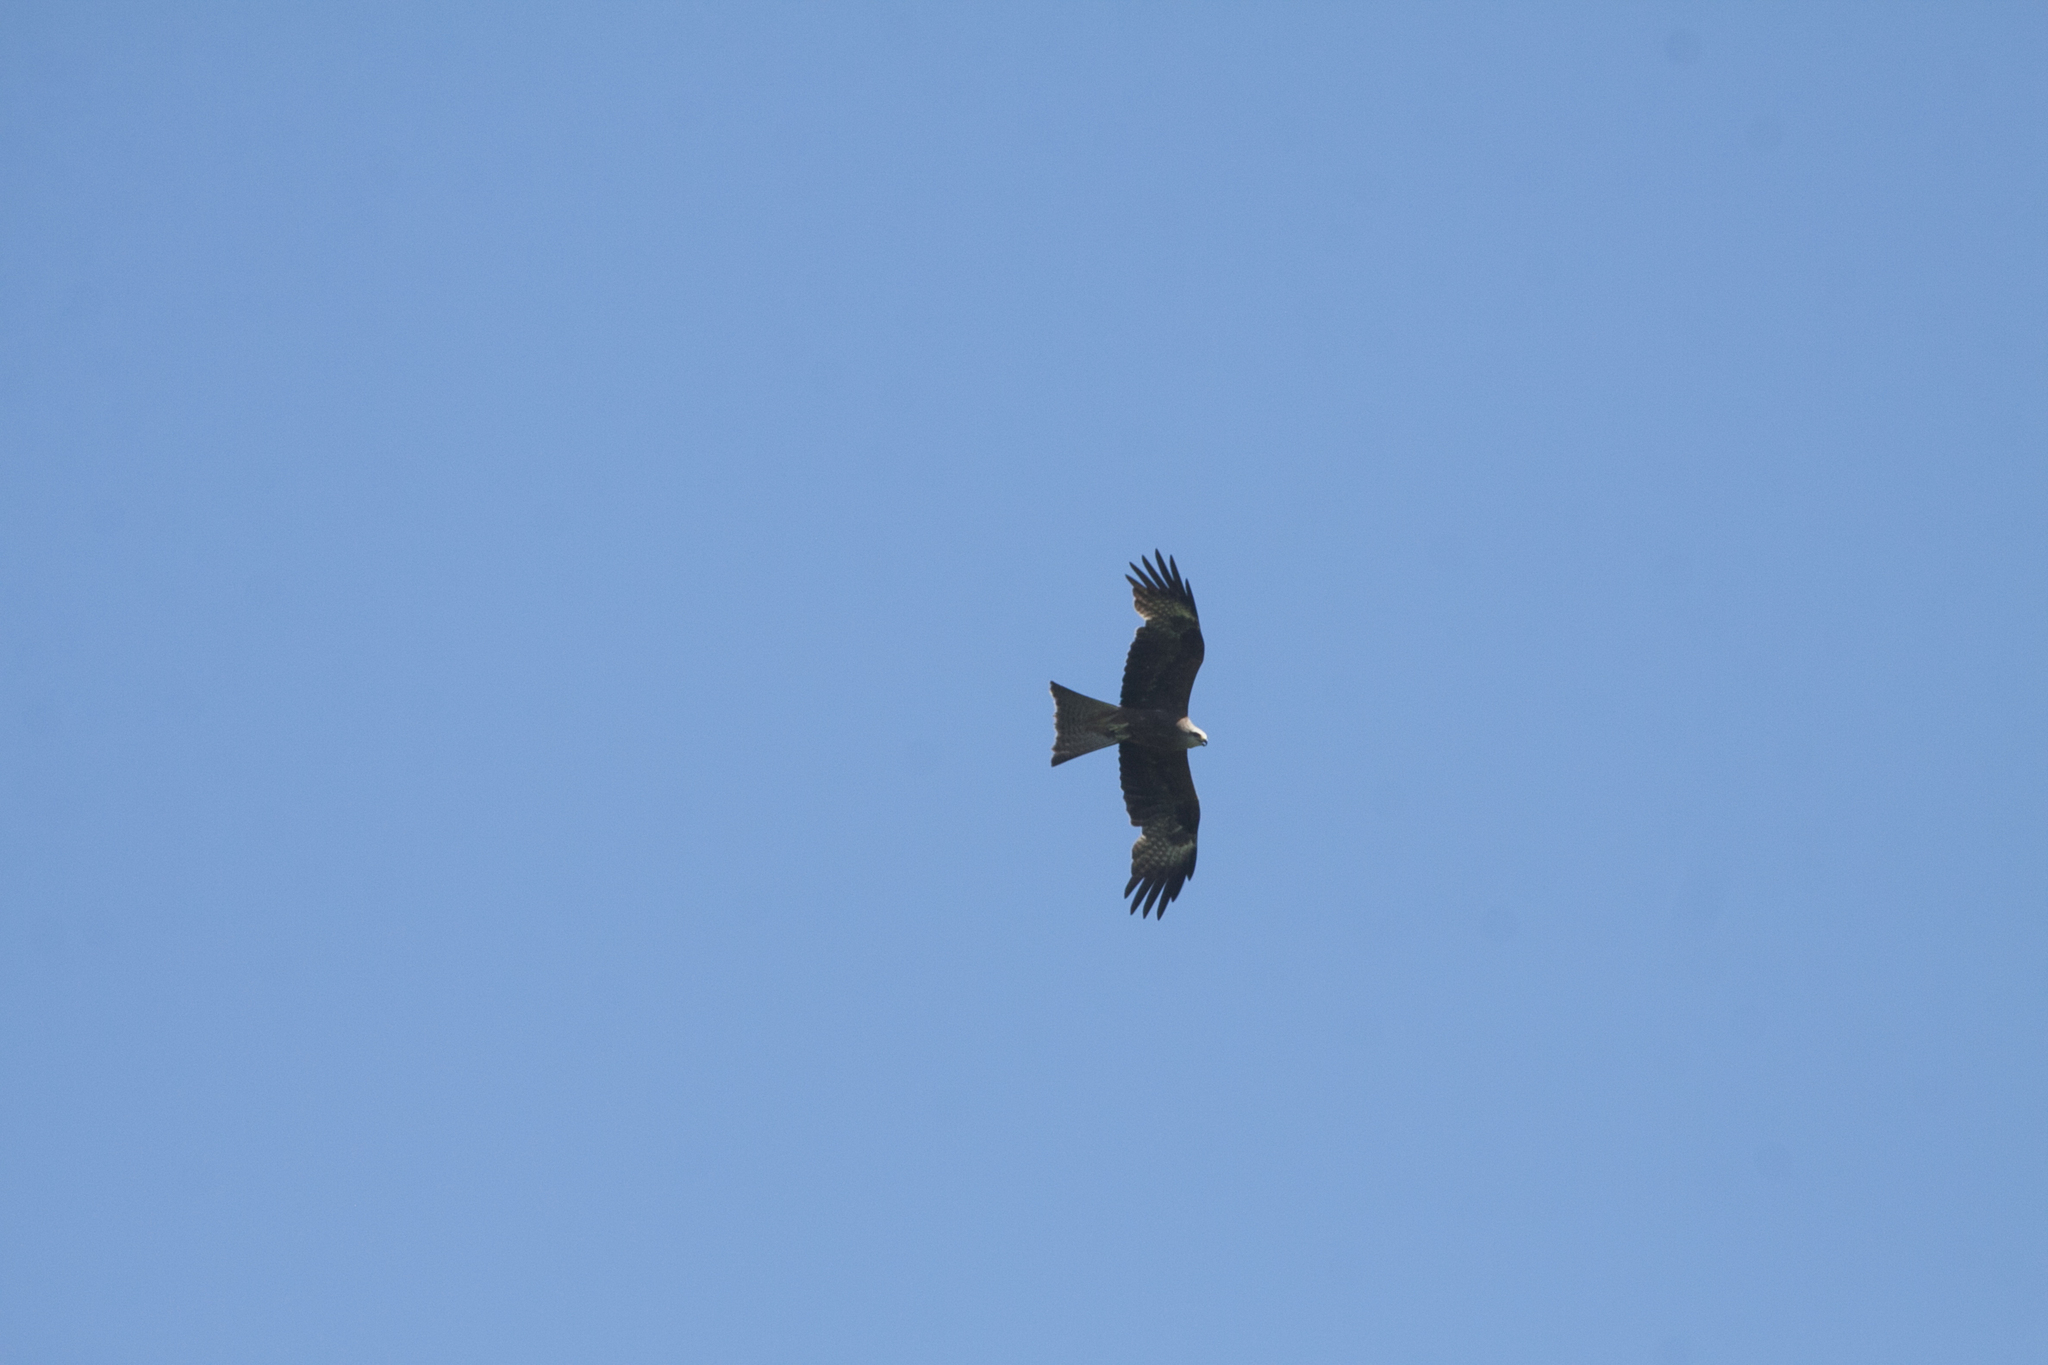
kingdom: Animalia
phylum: Chordata
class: Aves
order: Accipitriformes
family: Accipitridae
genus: Milvus
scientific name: Milvus migrans
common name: Black kite
